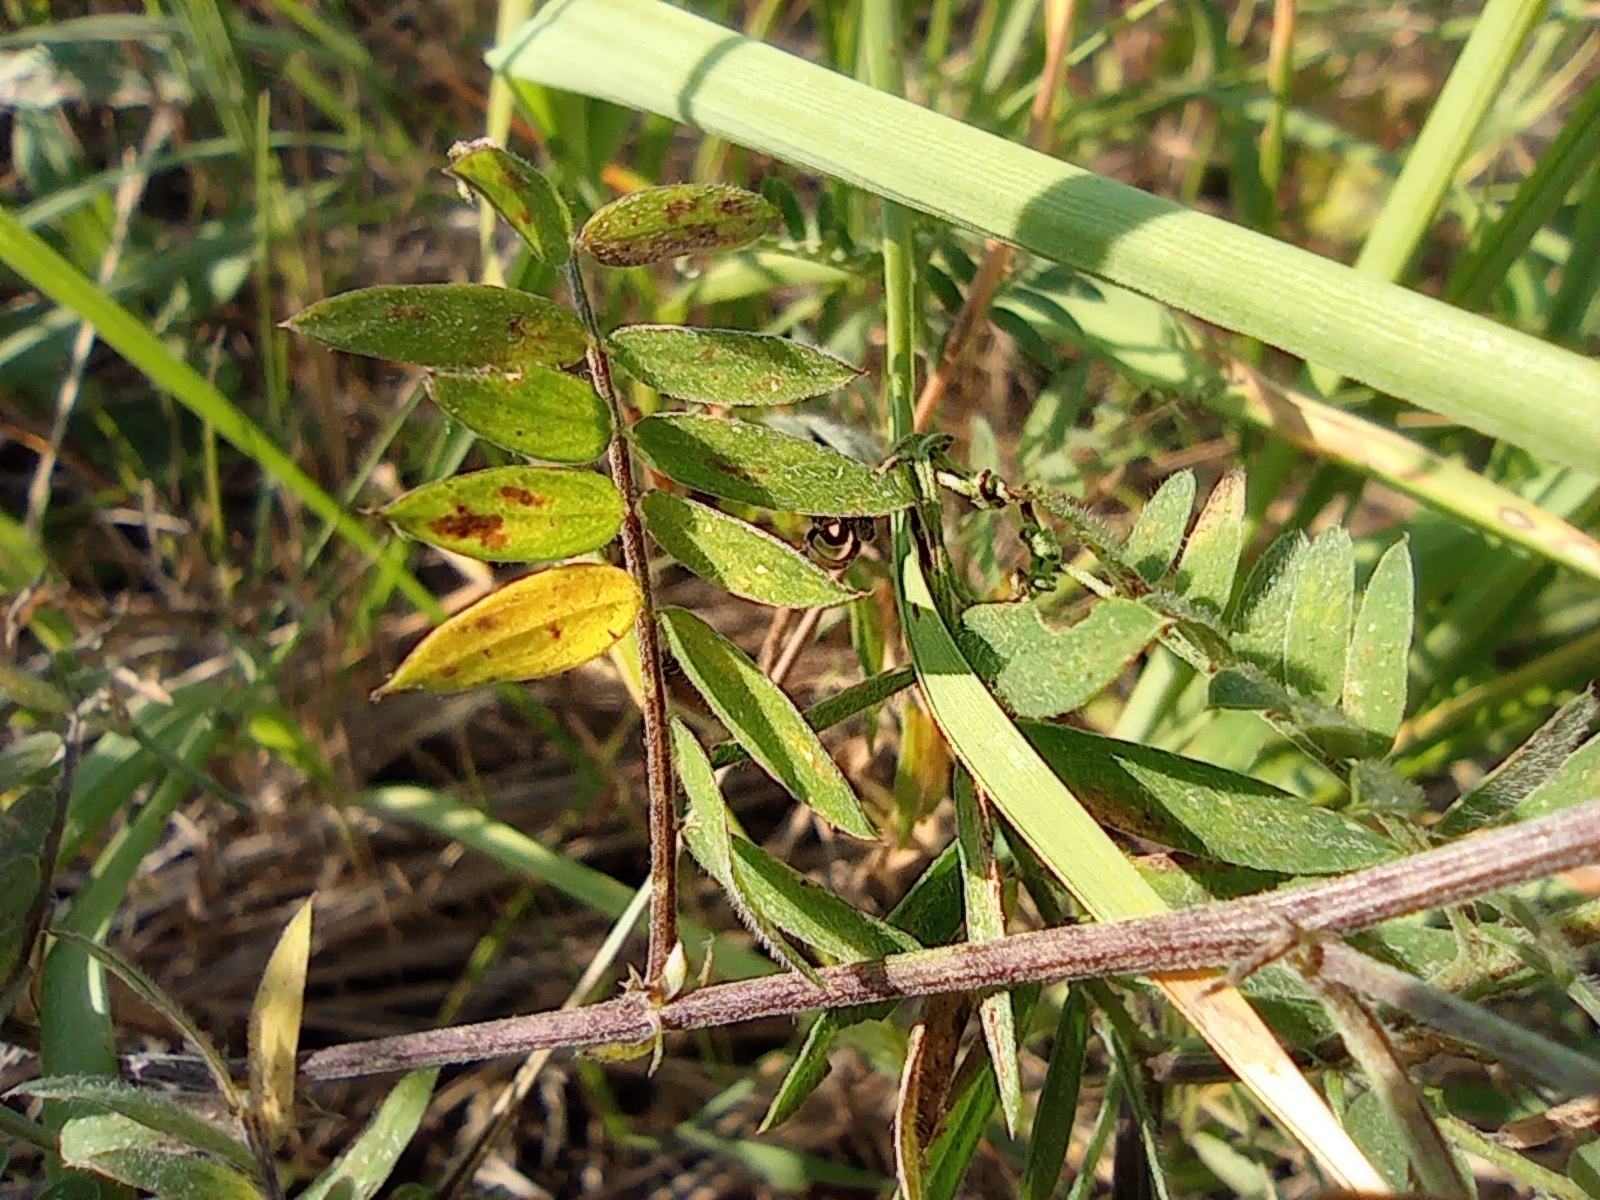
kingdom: Plantae
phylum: Tracheophyta
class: Magnoliopsida
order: Fabales
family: Fabaceae
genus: Vicia
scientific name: Vicia cracca
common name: Bird vetch
